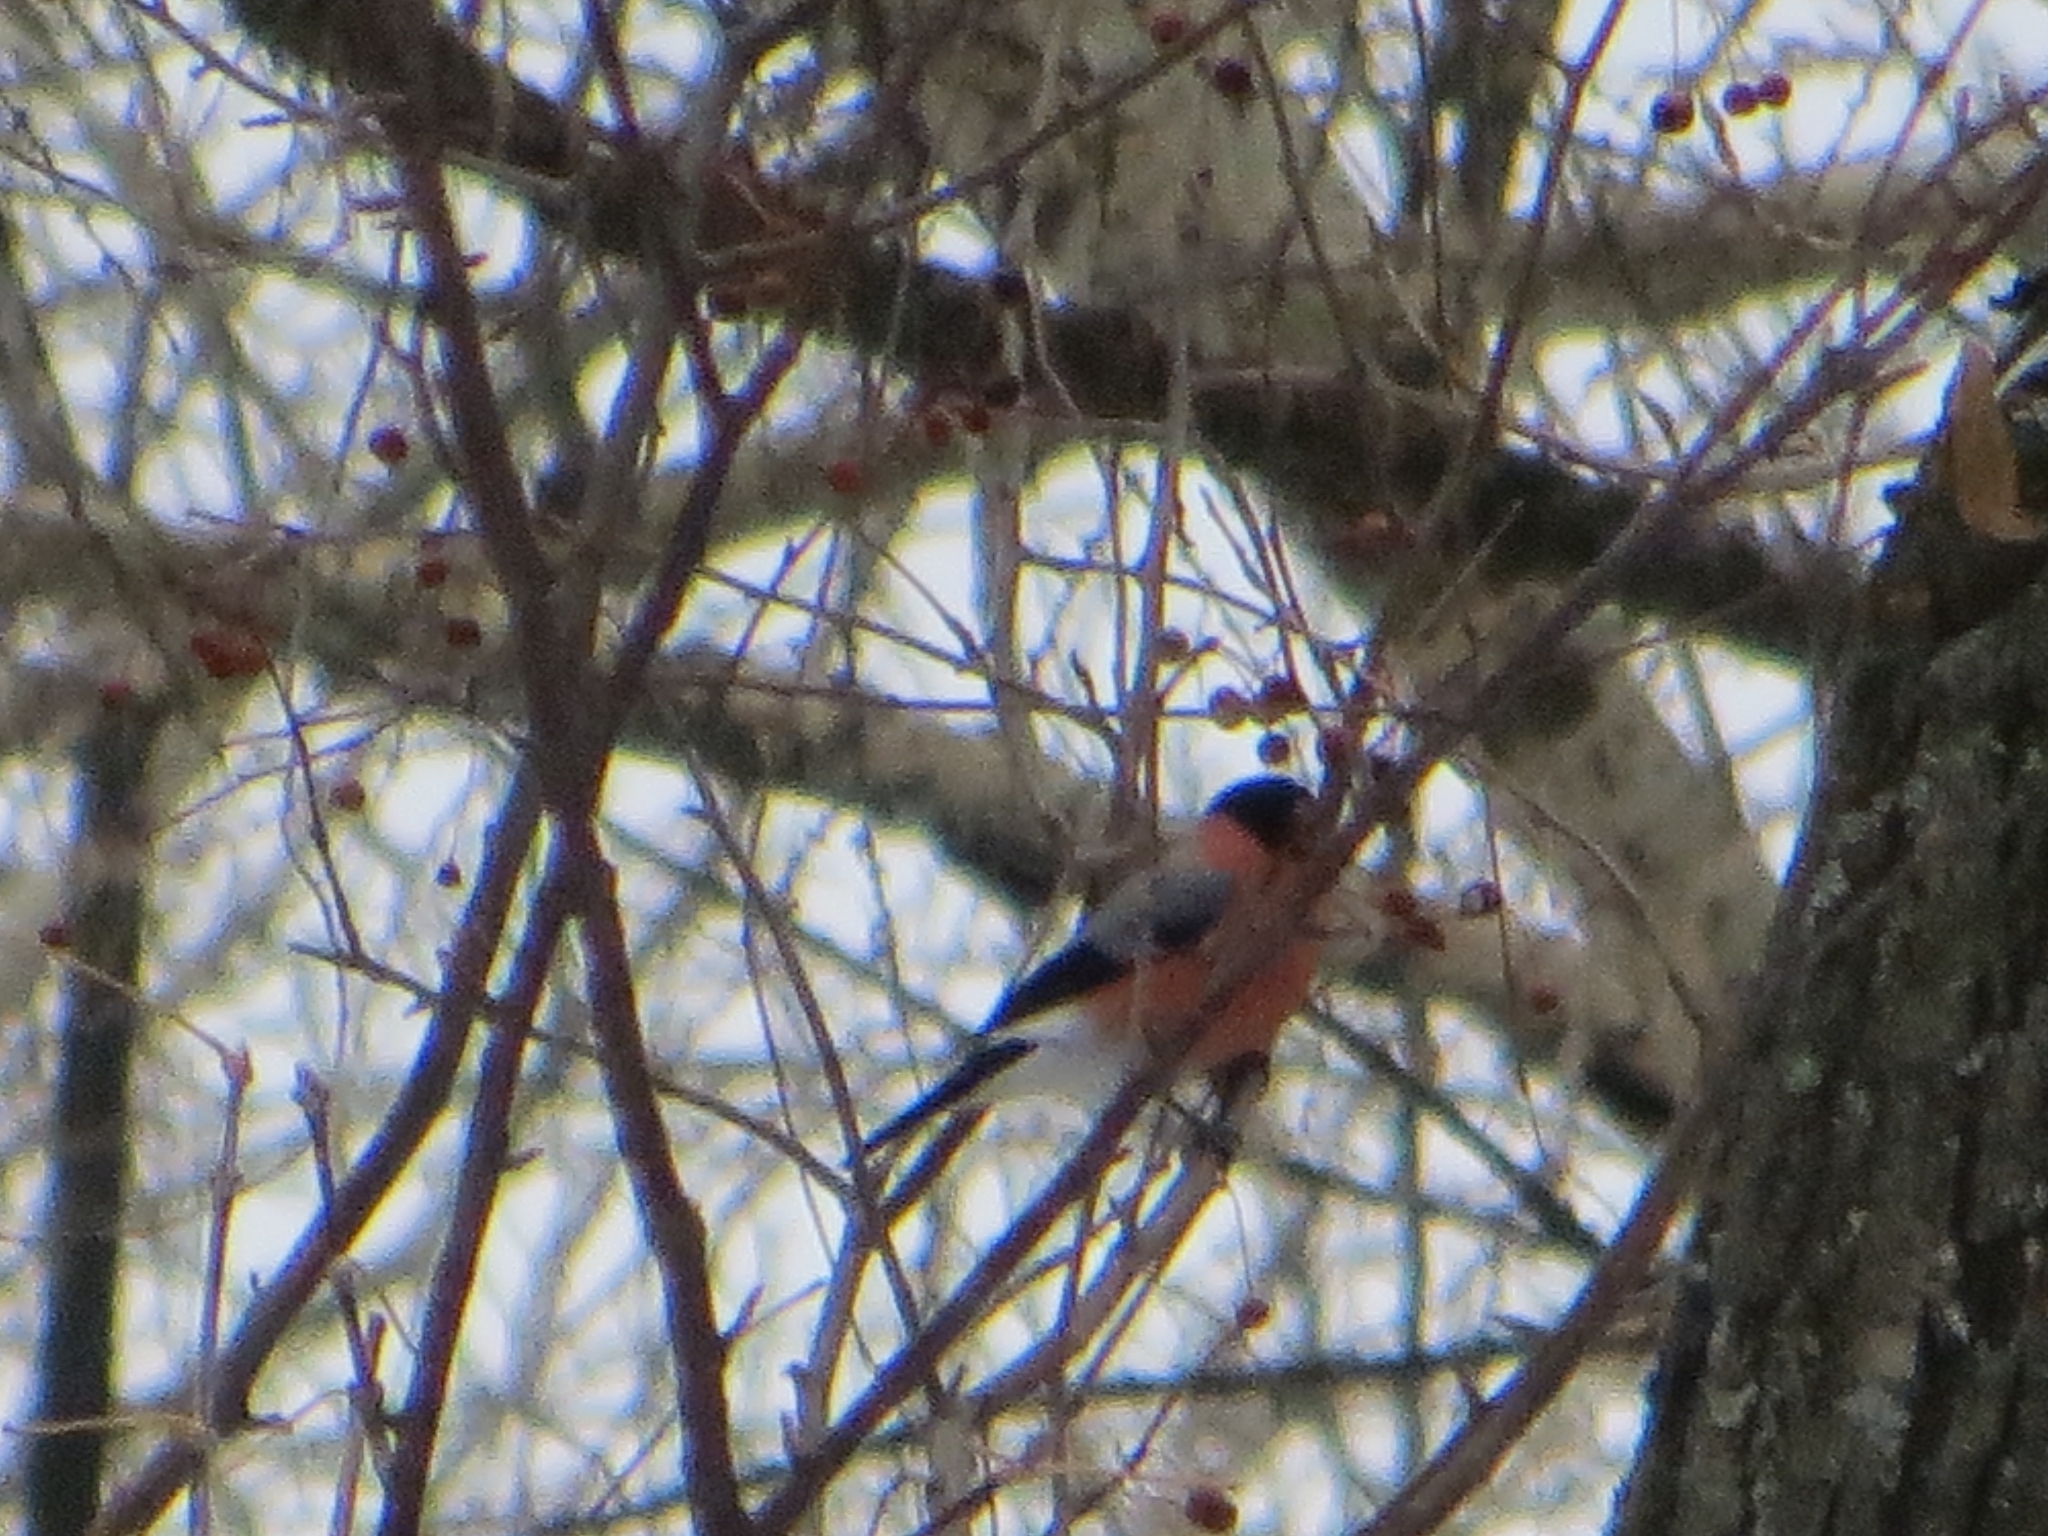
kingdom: Animalia
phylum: Chordata
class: Aves
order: Passeriformes
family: Fringillidae
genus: Pyrrhula
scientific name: Pyrrhula pyrrhula
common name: Eurasian bullfinch
